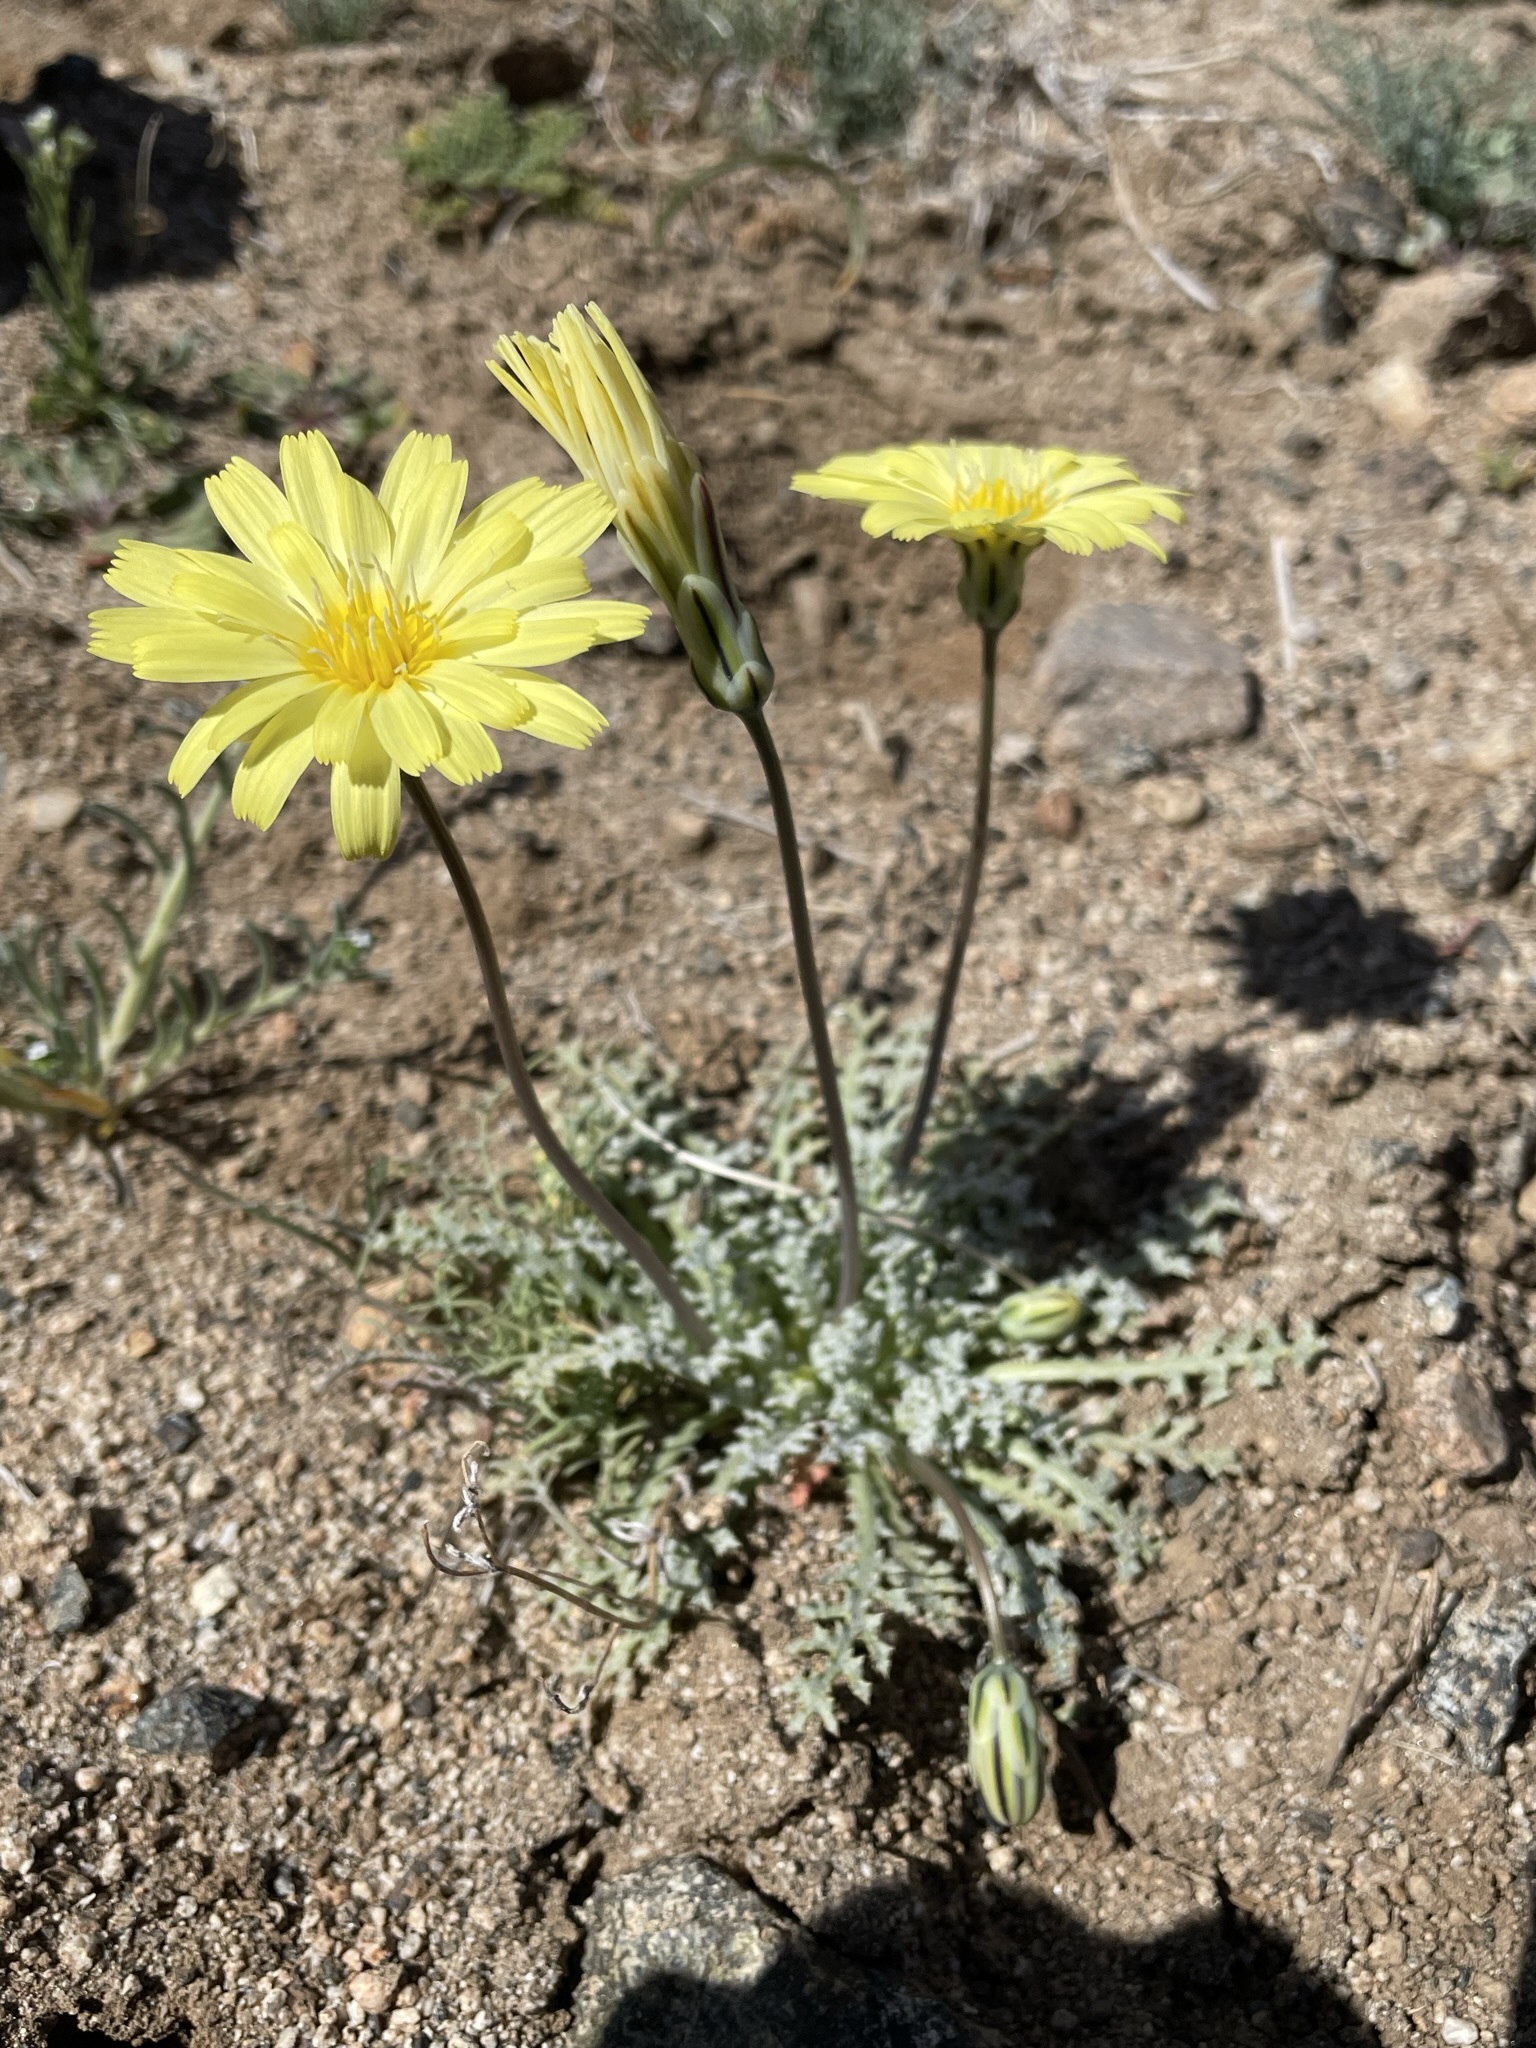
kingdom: Plantae
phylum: Tracheophyta
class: Magnoliopsida
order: Asterales
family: Asteraceae
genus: Anisocoma
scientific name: Anisocoma acaulis
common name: Scalebud
